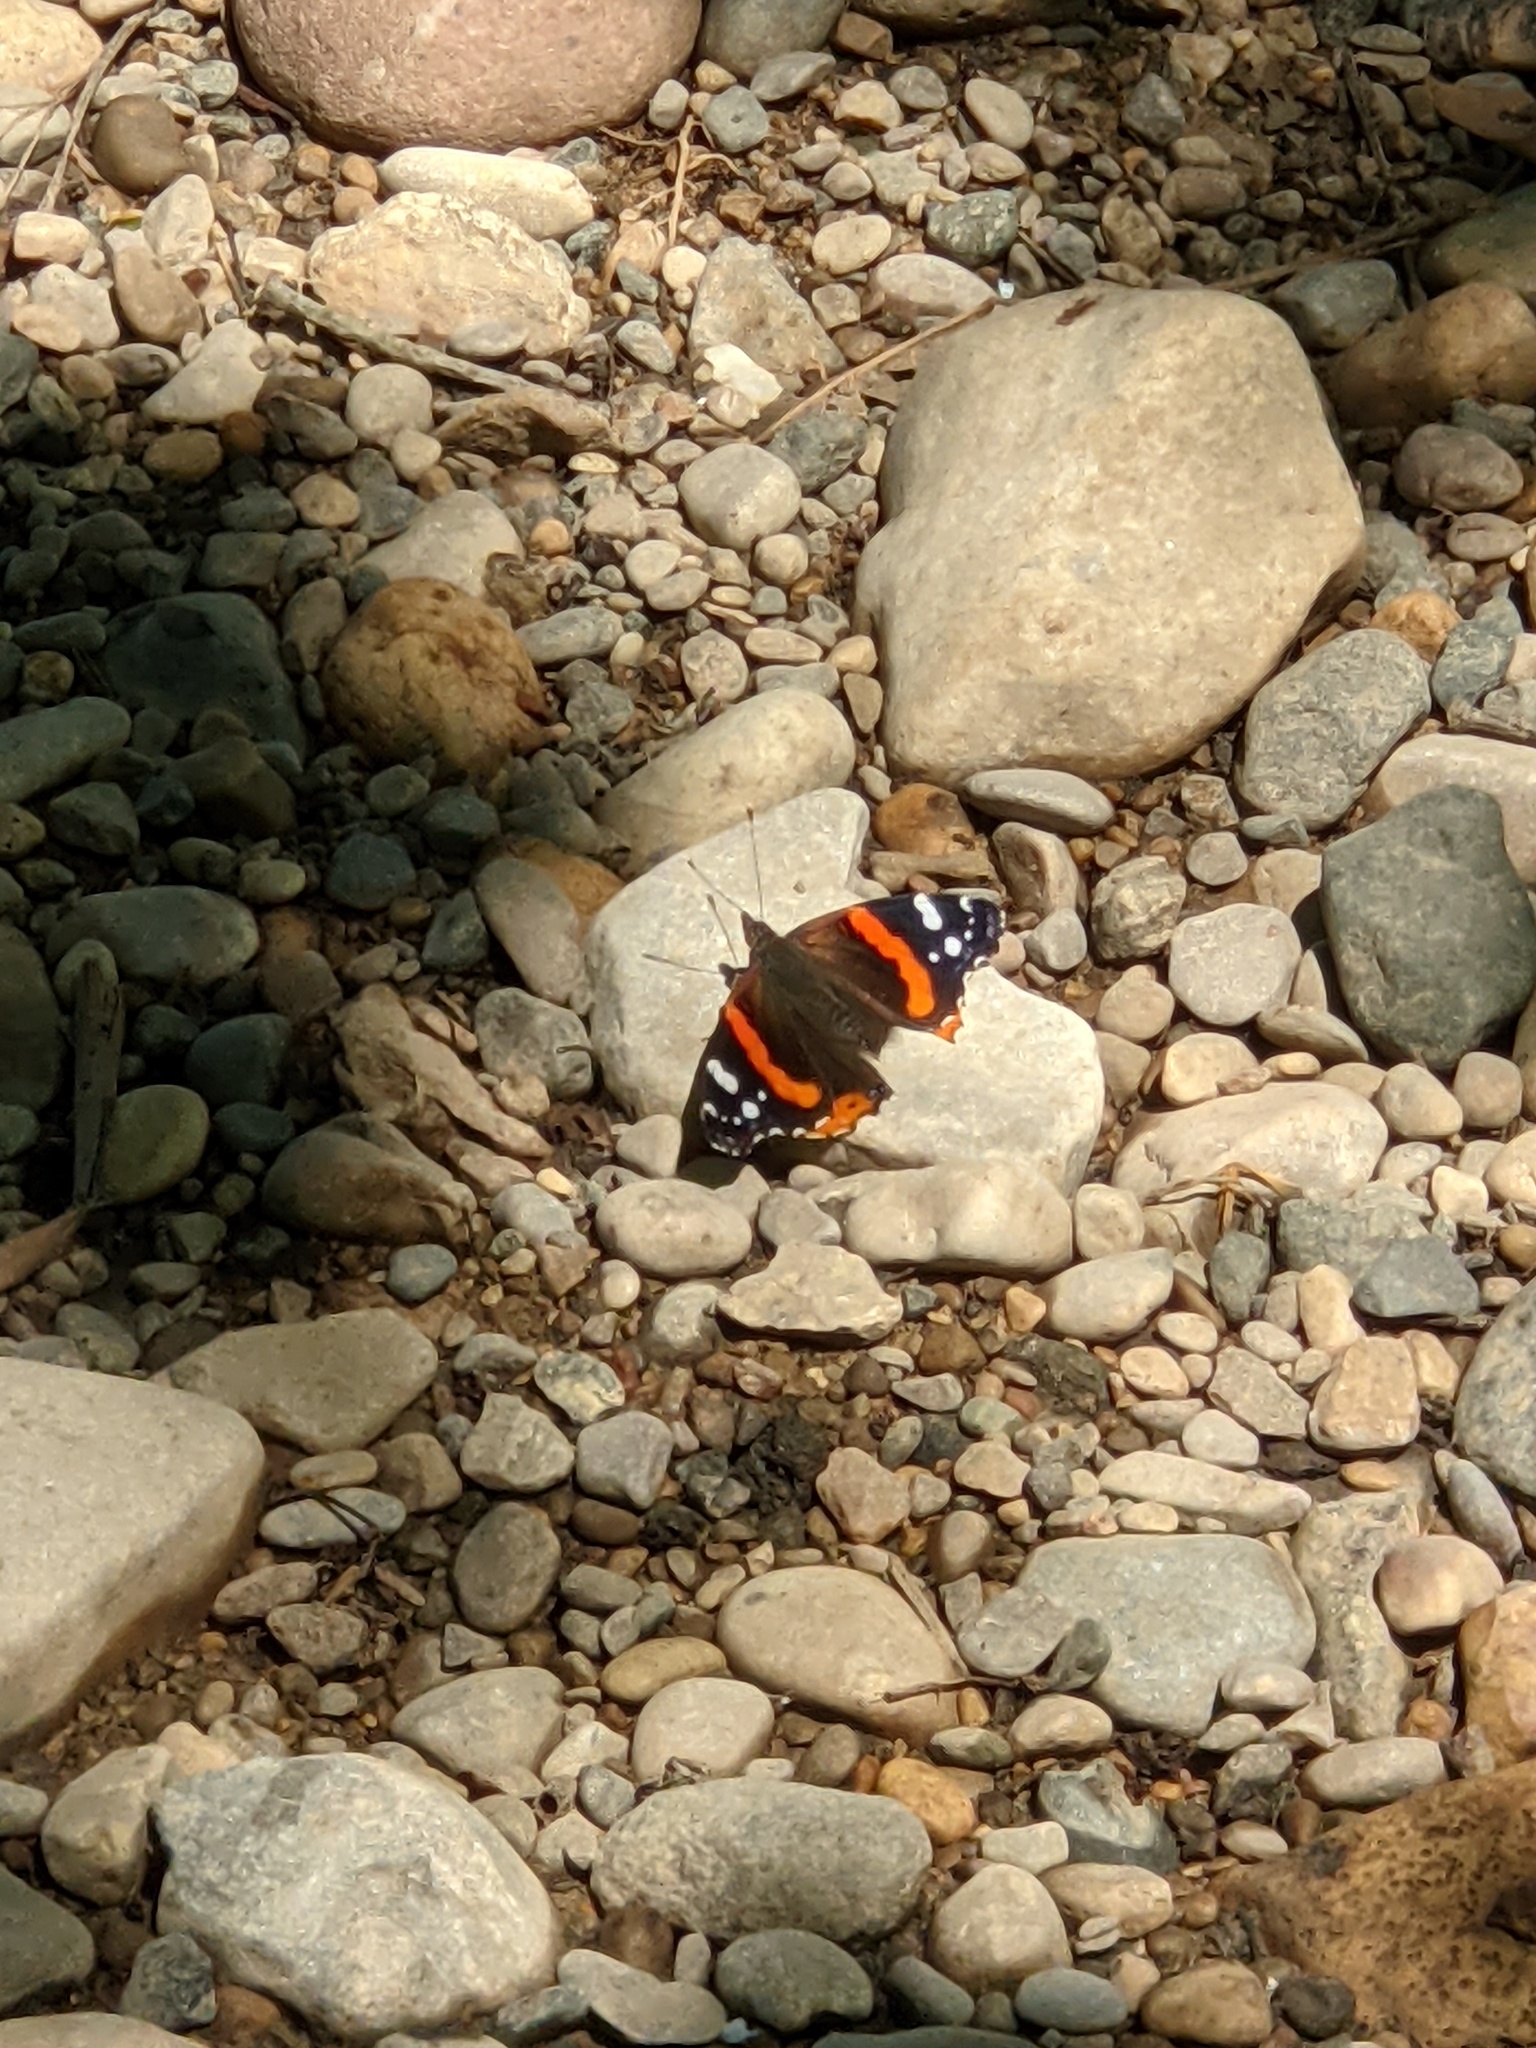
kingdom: Animalia
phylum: Arthropoda
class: Insecta
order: Lepidoptera
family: Nymphalidae
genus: Vanessa
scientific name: Vanessa atalanta
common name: Red admiral
